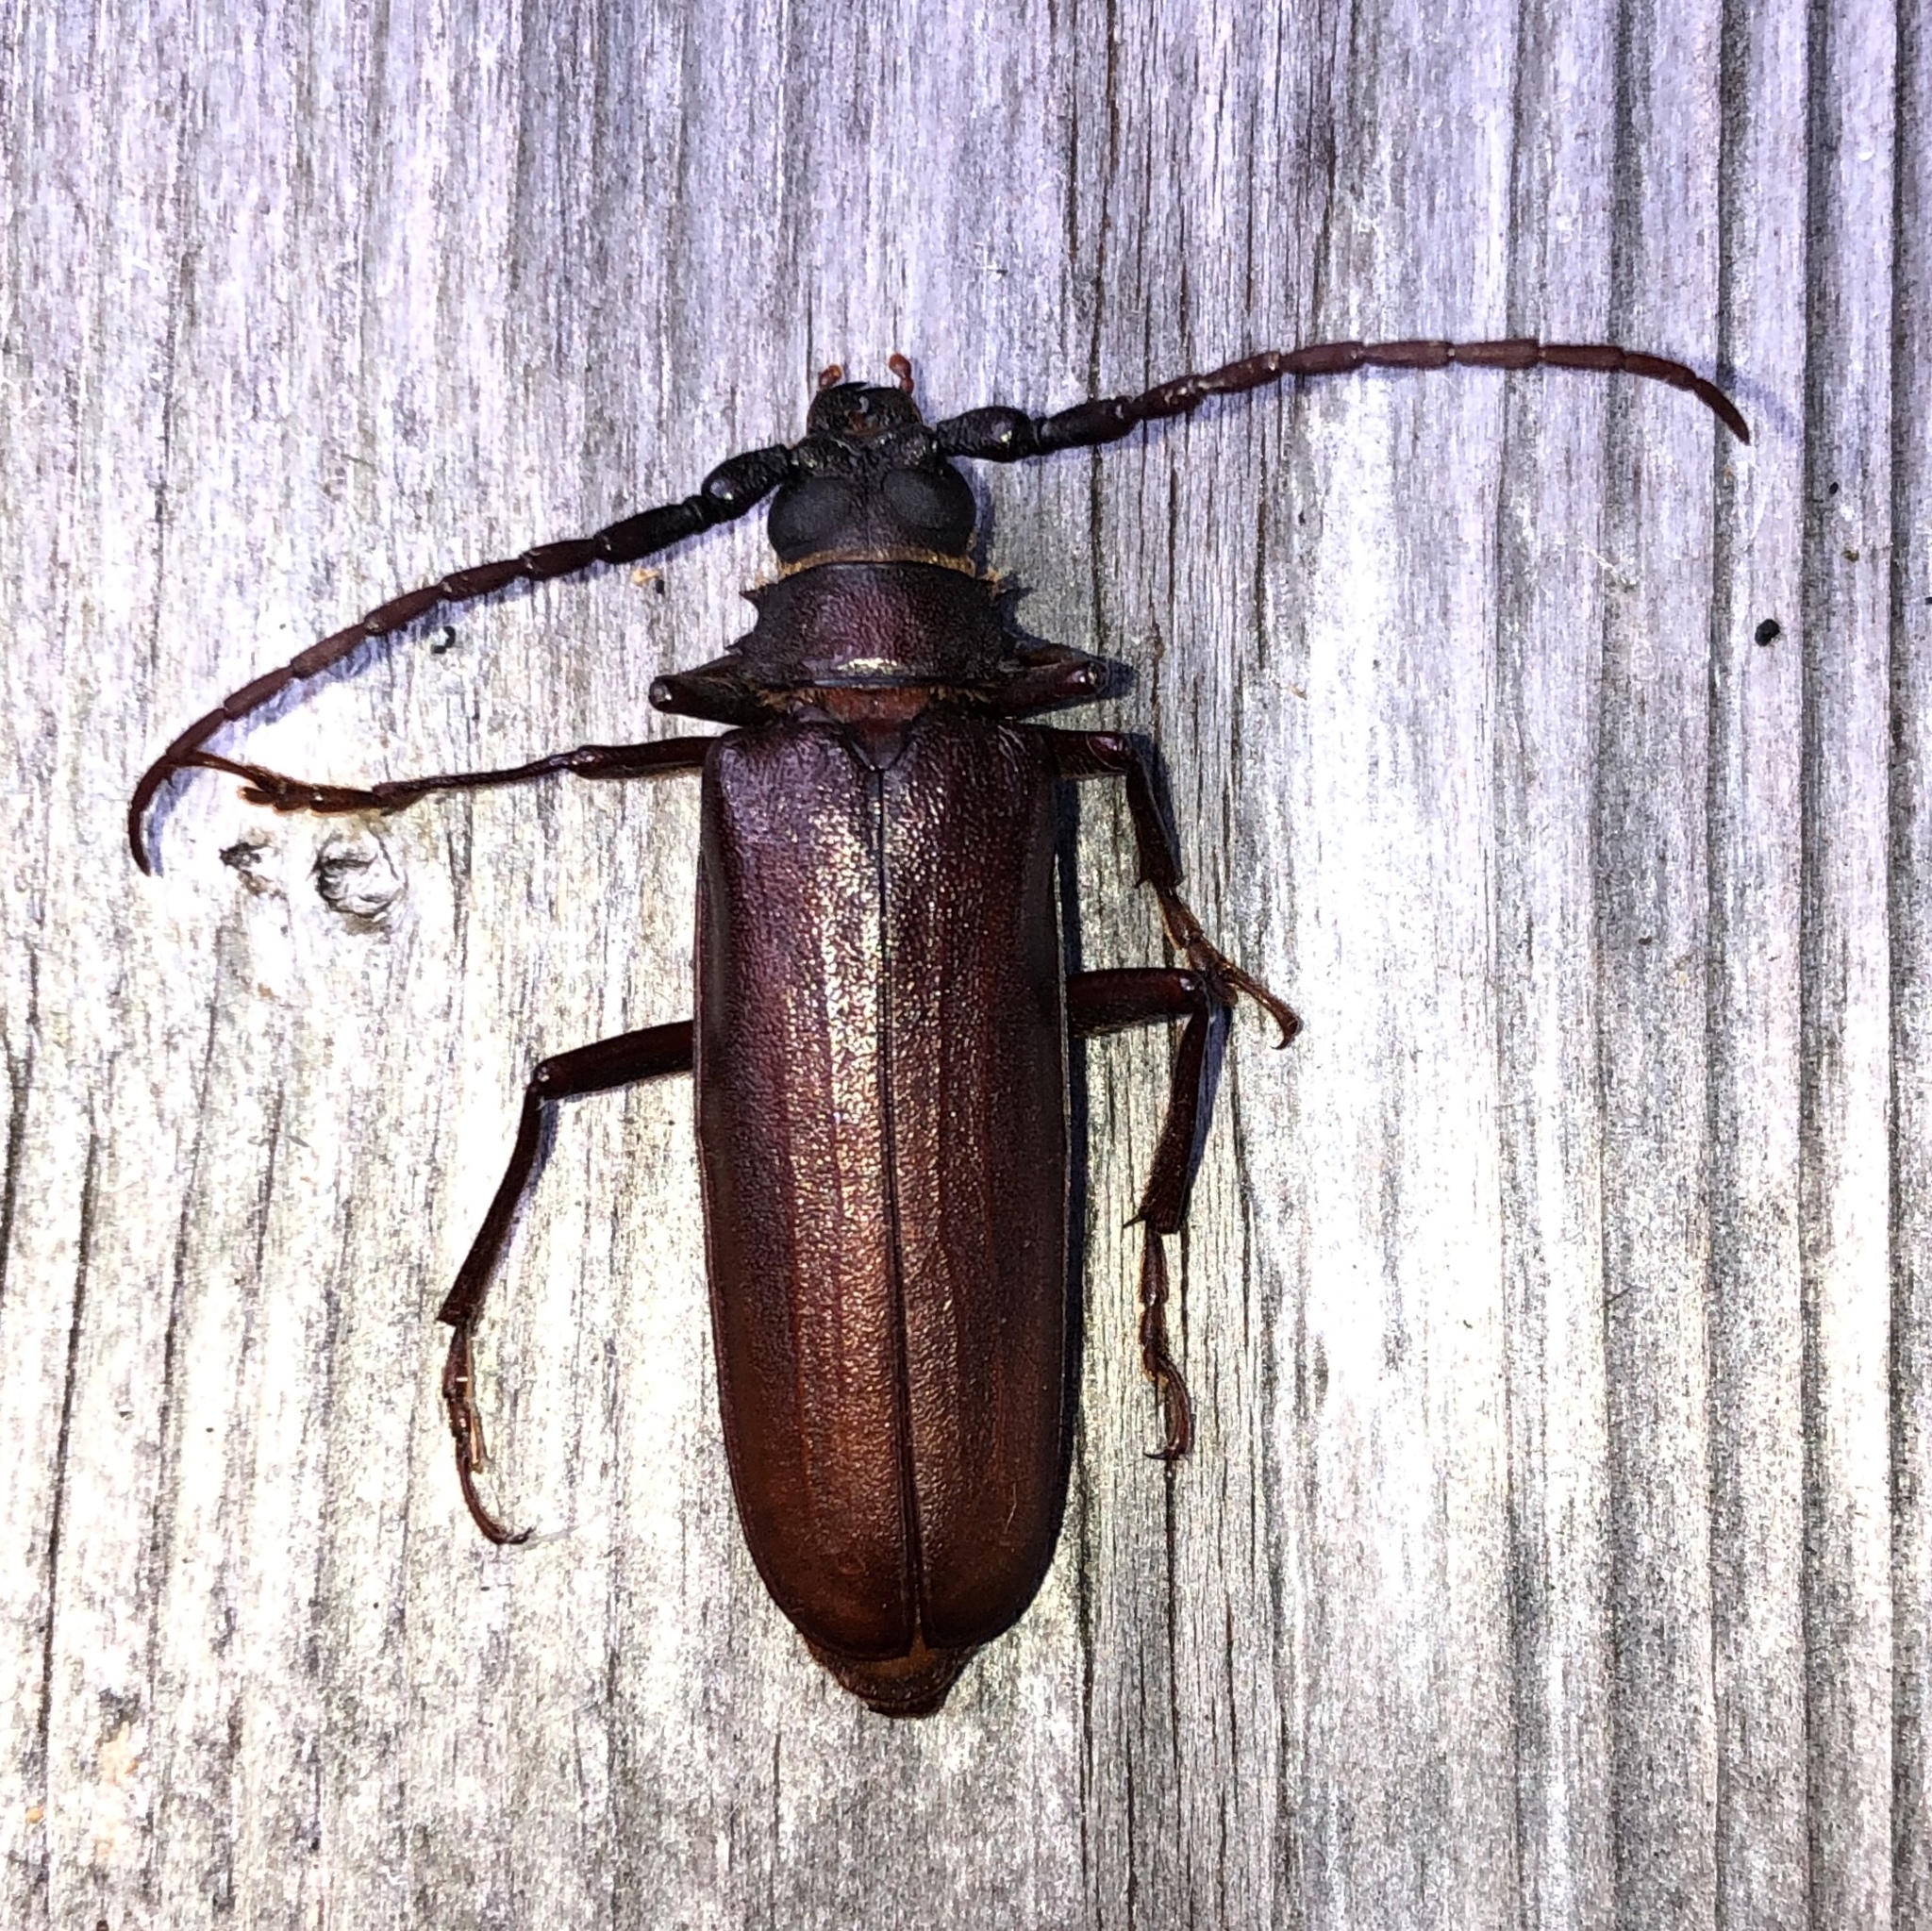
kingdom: Animalia
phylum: Arthropoda
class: Insecta
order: Coleoptera
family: Cerambycidae
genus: Orthosoma
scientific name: Orthosoma brunneum
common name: Brown prionid beetle
